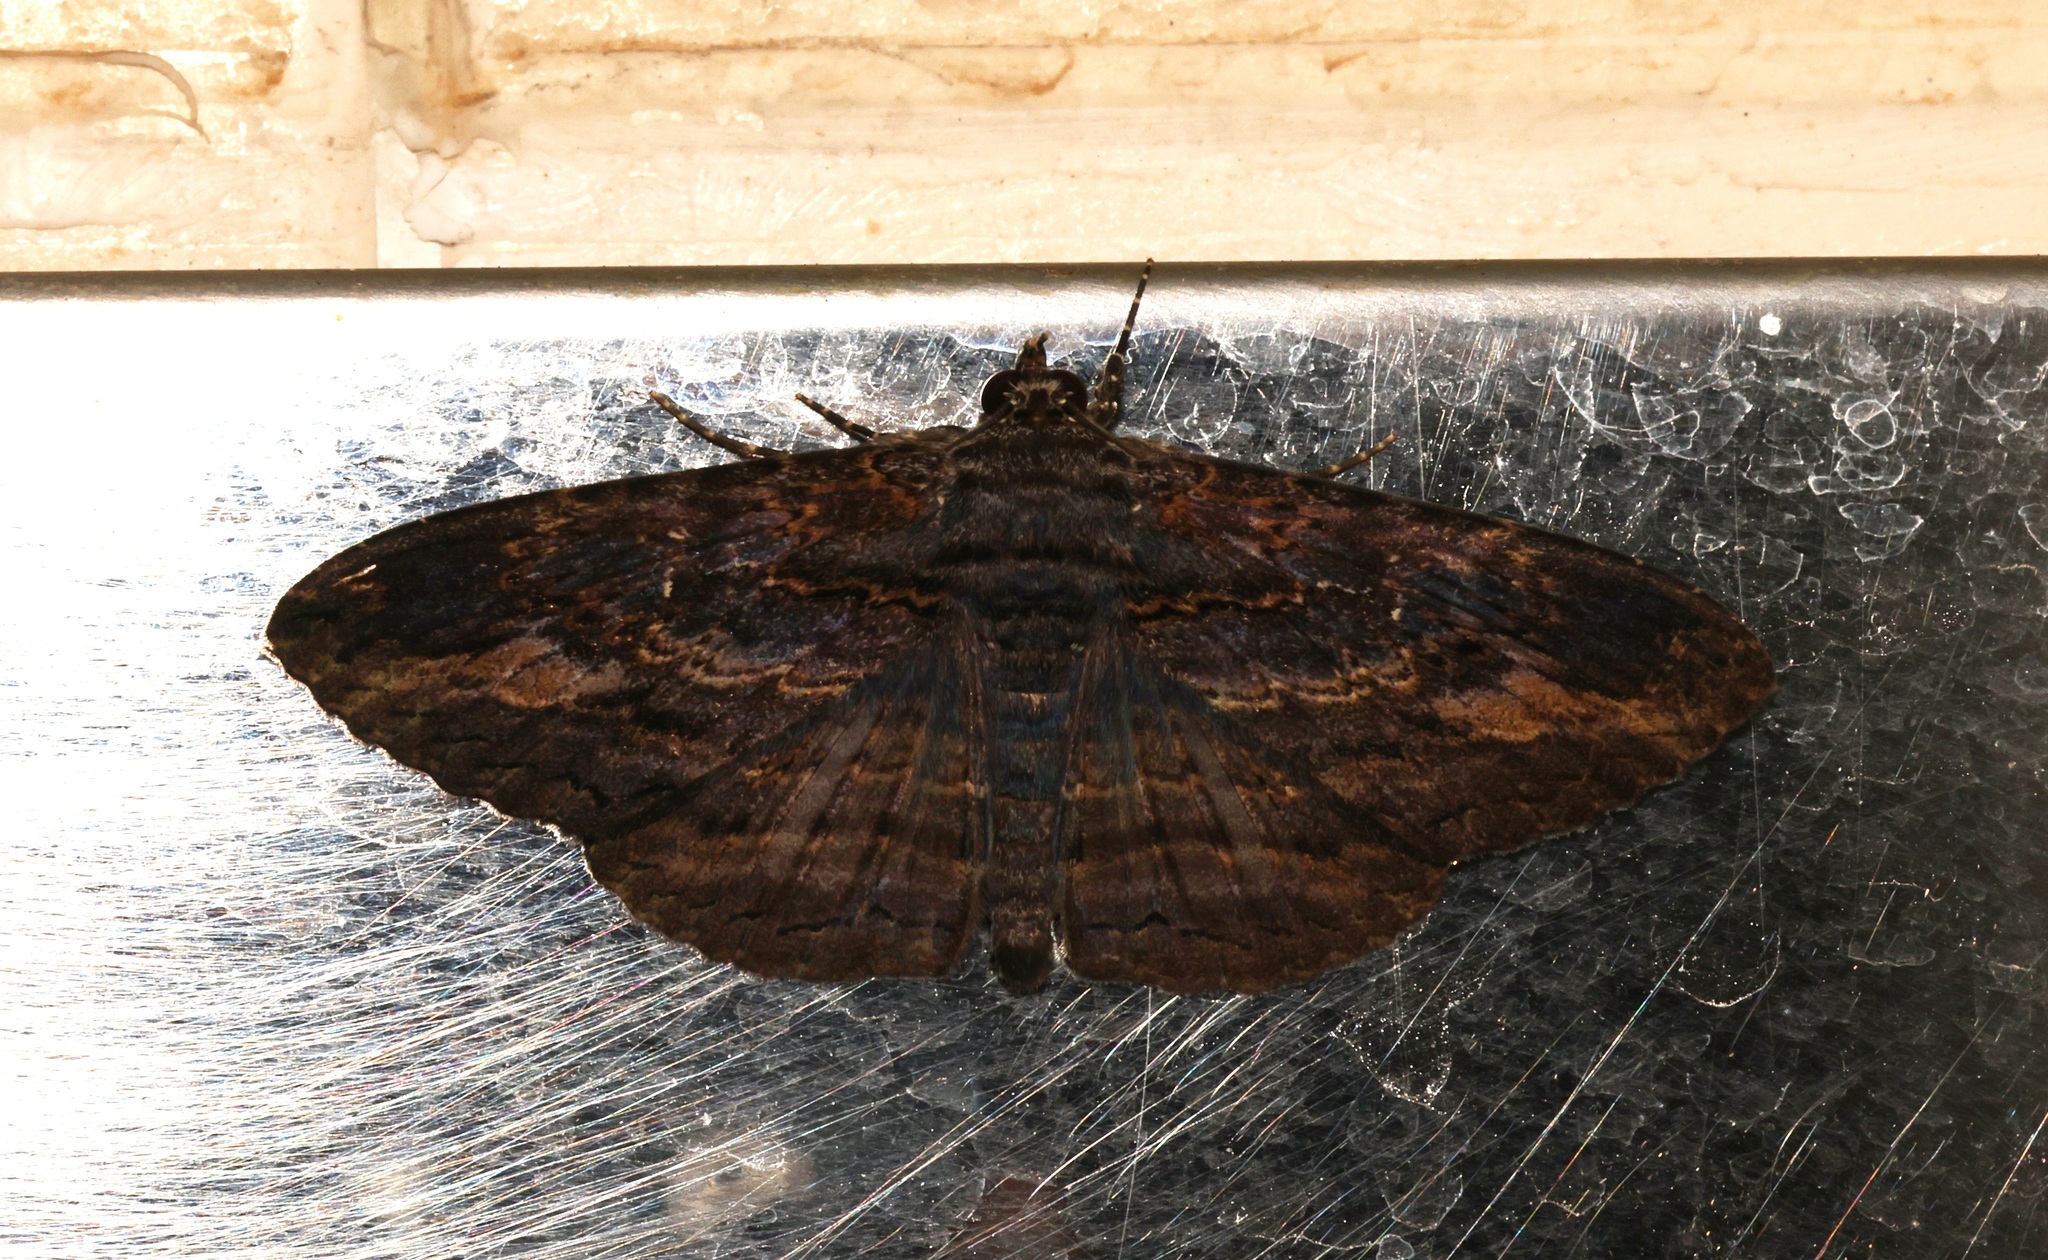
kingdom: Animalia
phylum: Arthropoda
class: Insecta
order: Lepidoptera
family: Erebidae
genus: Anisoneura
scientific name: Anisoneura salebrosa
